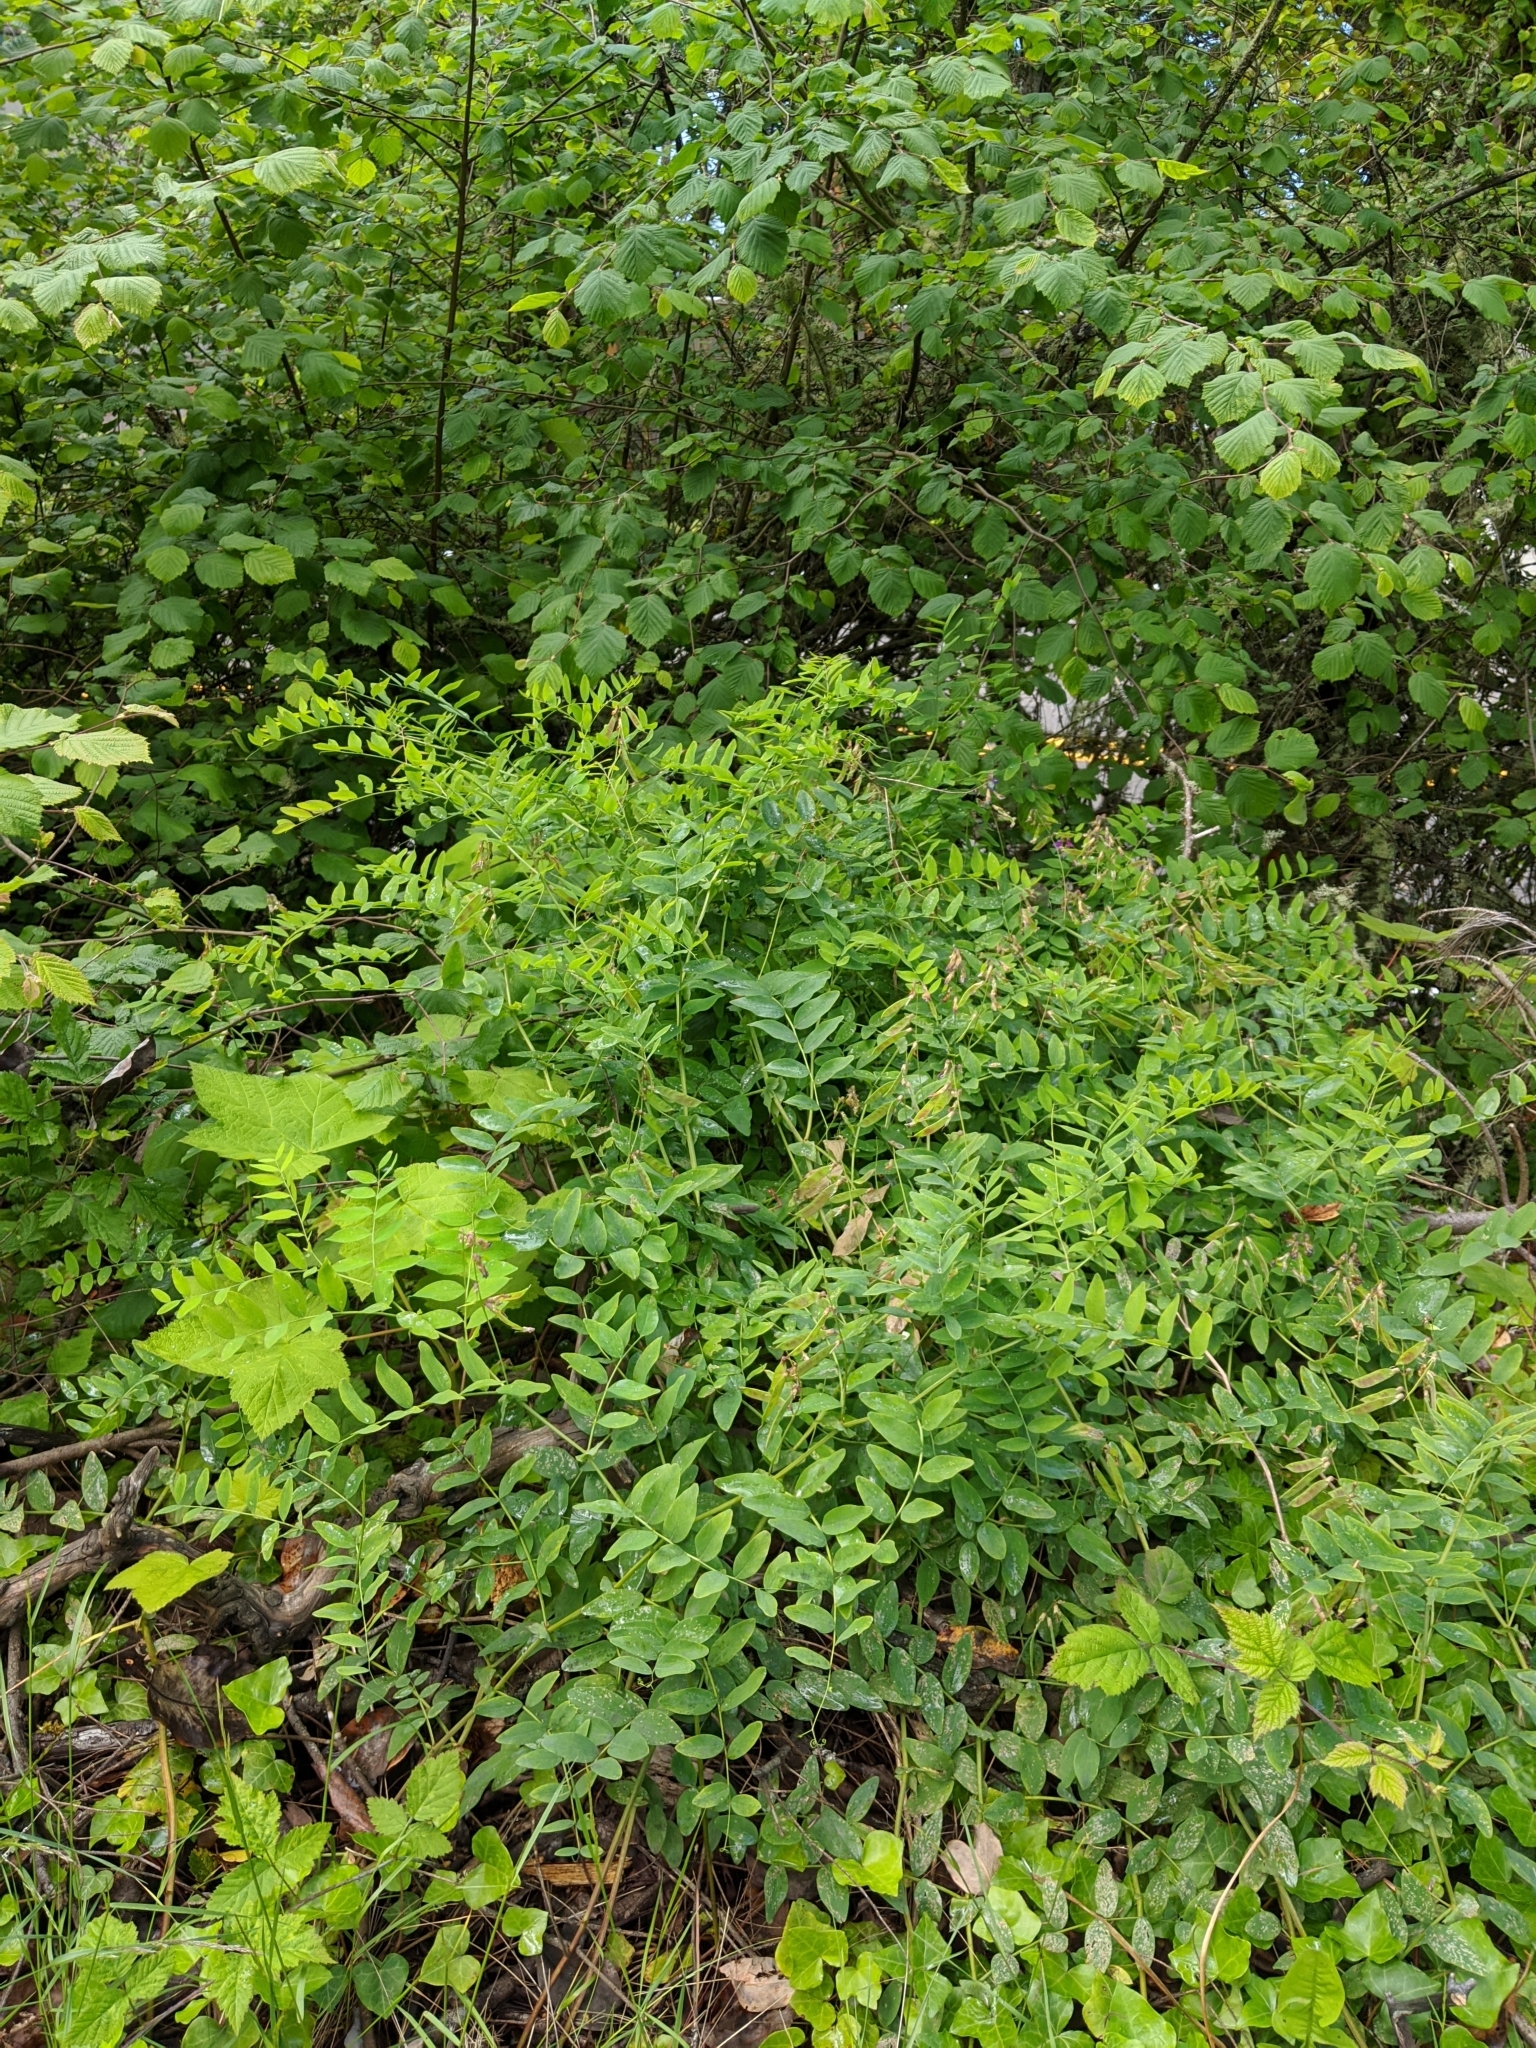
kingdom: Plantae
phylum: Tracheophyta
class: Magnoliopsida
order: Fabales
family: Fabaceae
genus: Lathyrus
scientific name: Lathyrus polyphyllus
